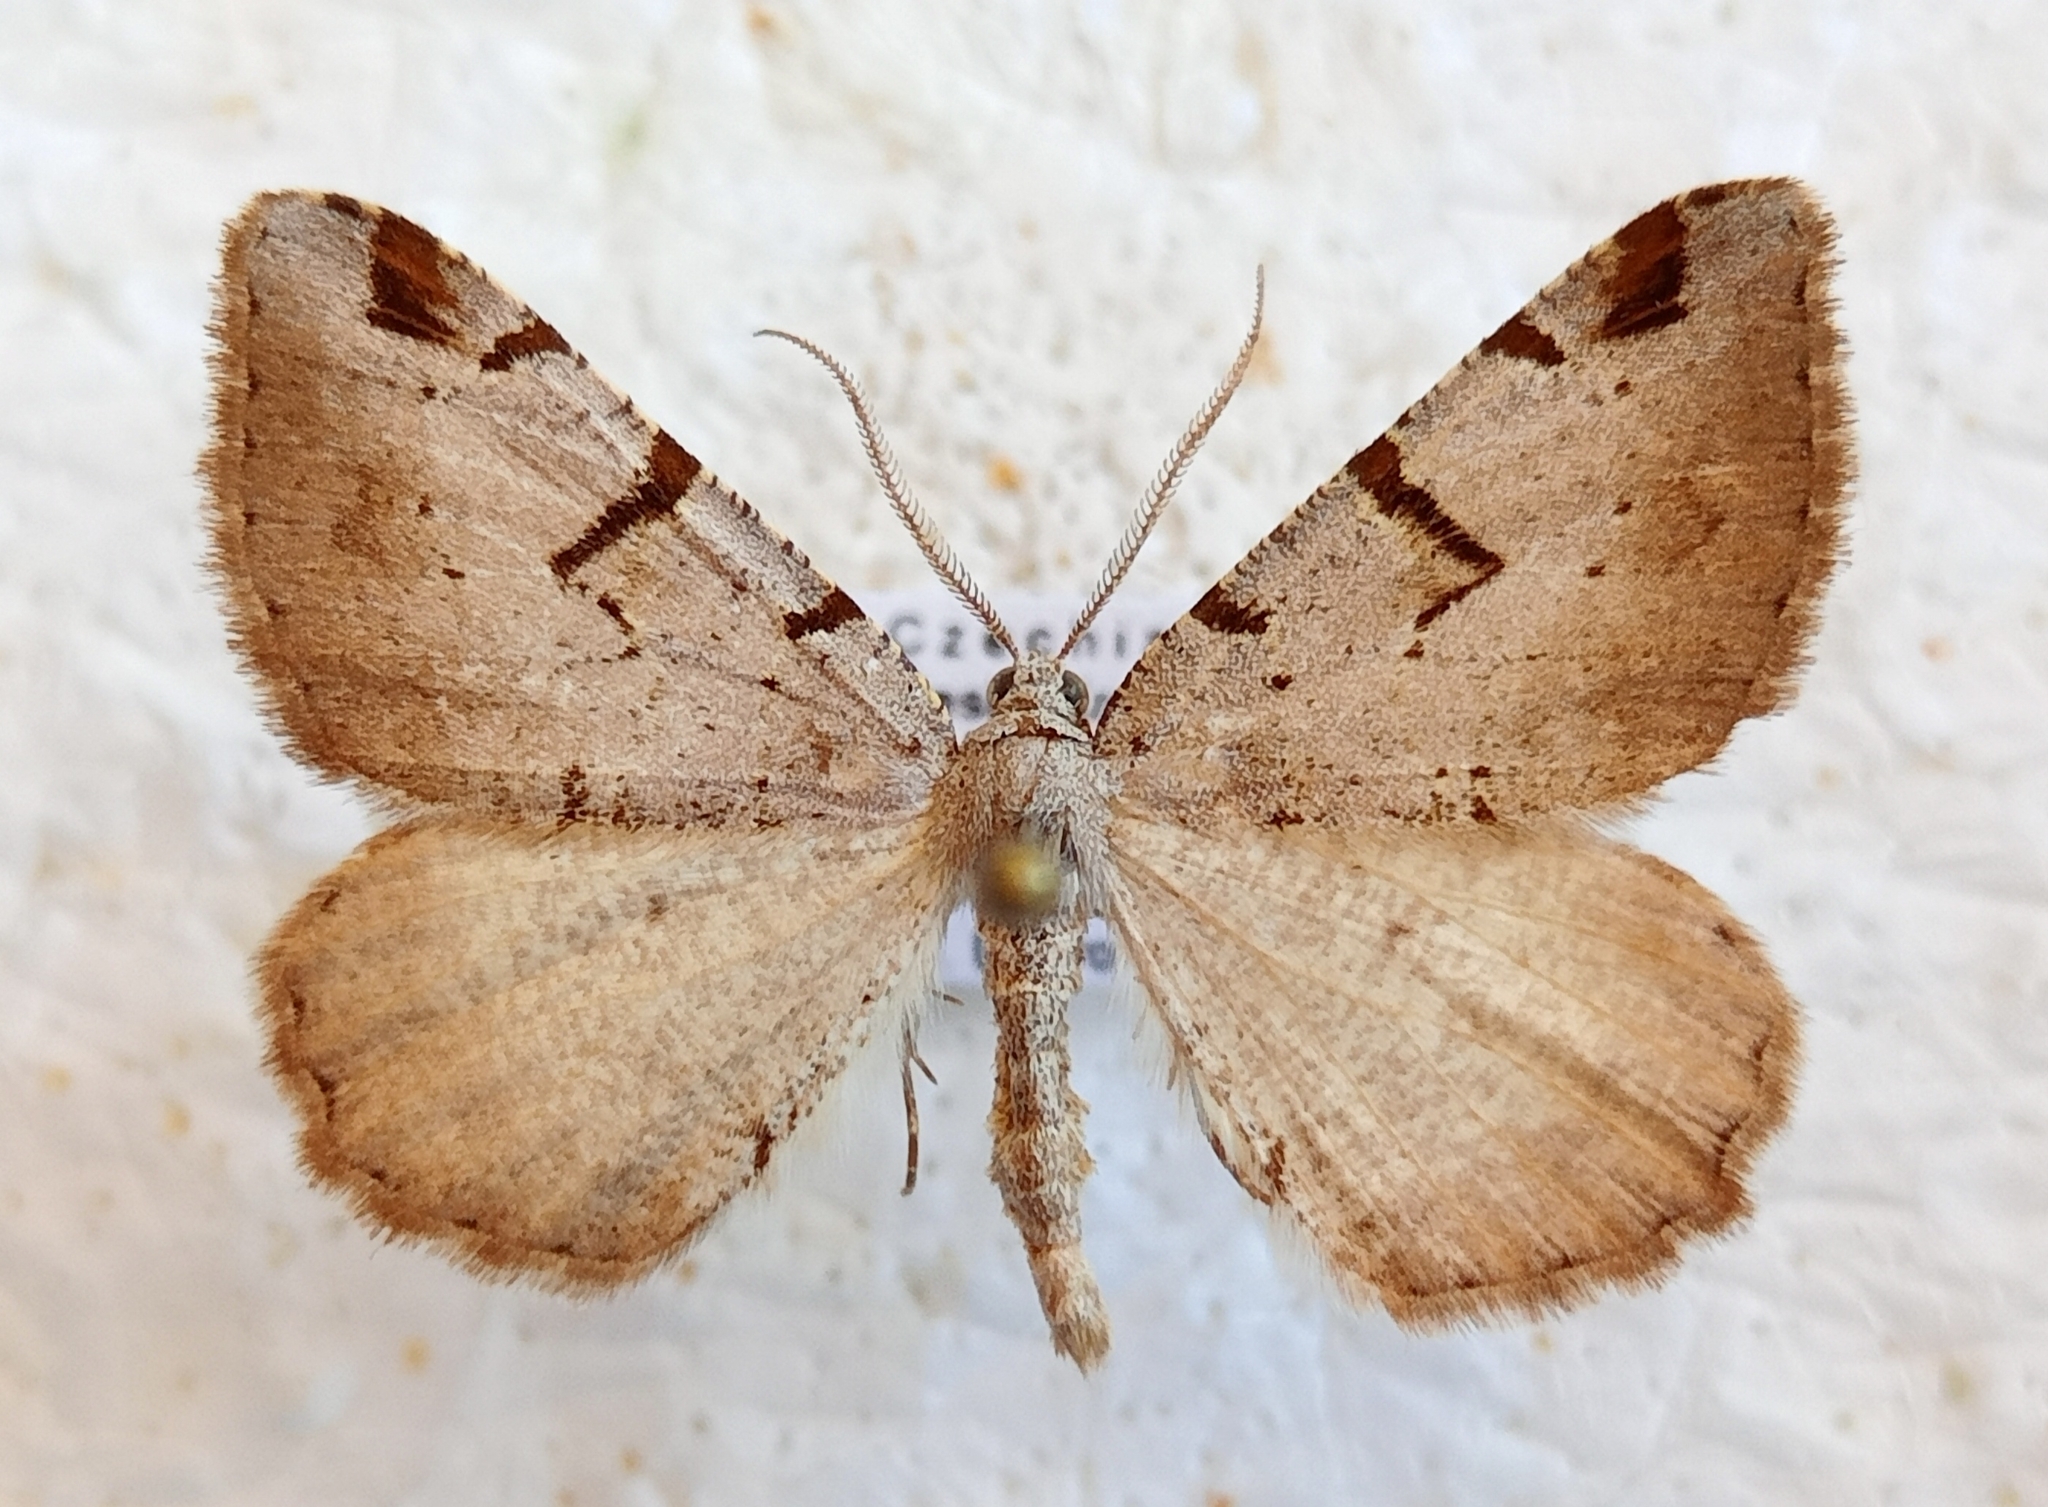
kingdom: Animalia
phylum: Arthropoda
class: Insecta
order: Lepidoptera
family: Geometridae
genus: Macaria
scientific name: Macaria wauaria
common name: V-moth
